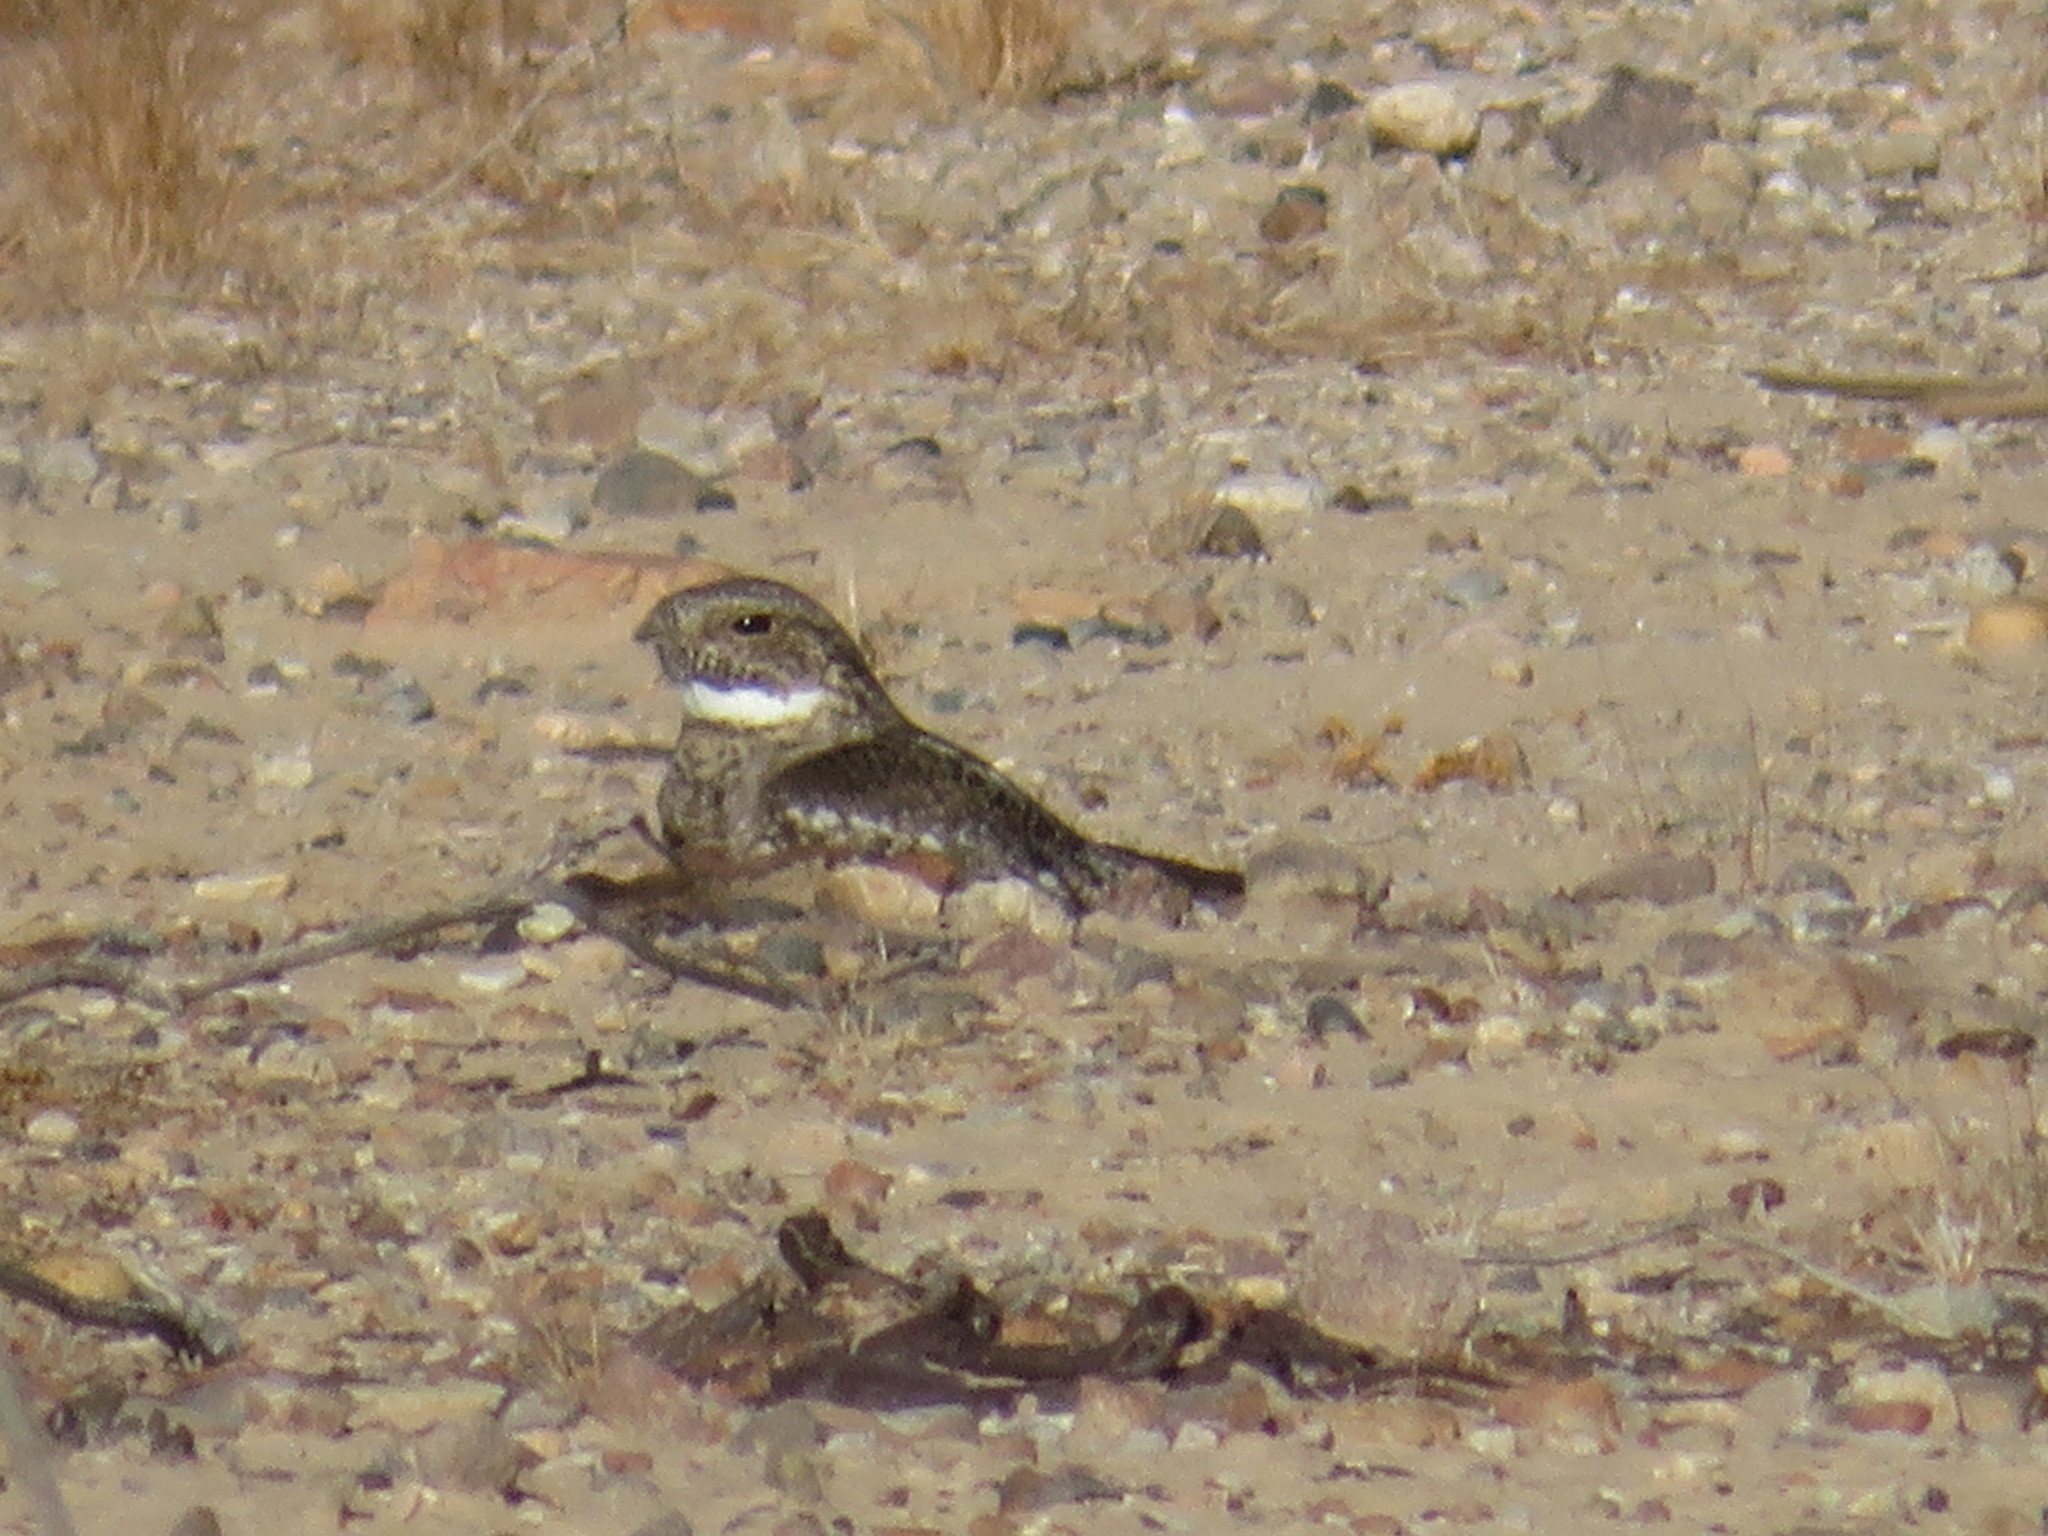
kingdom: Animalia
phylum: Chordata
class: Aves
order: Caprimulgiformes
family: Caprimulgidae
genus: Chordeiles
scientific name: Chordeiles acutipennis
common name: Lesser nighthawk
